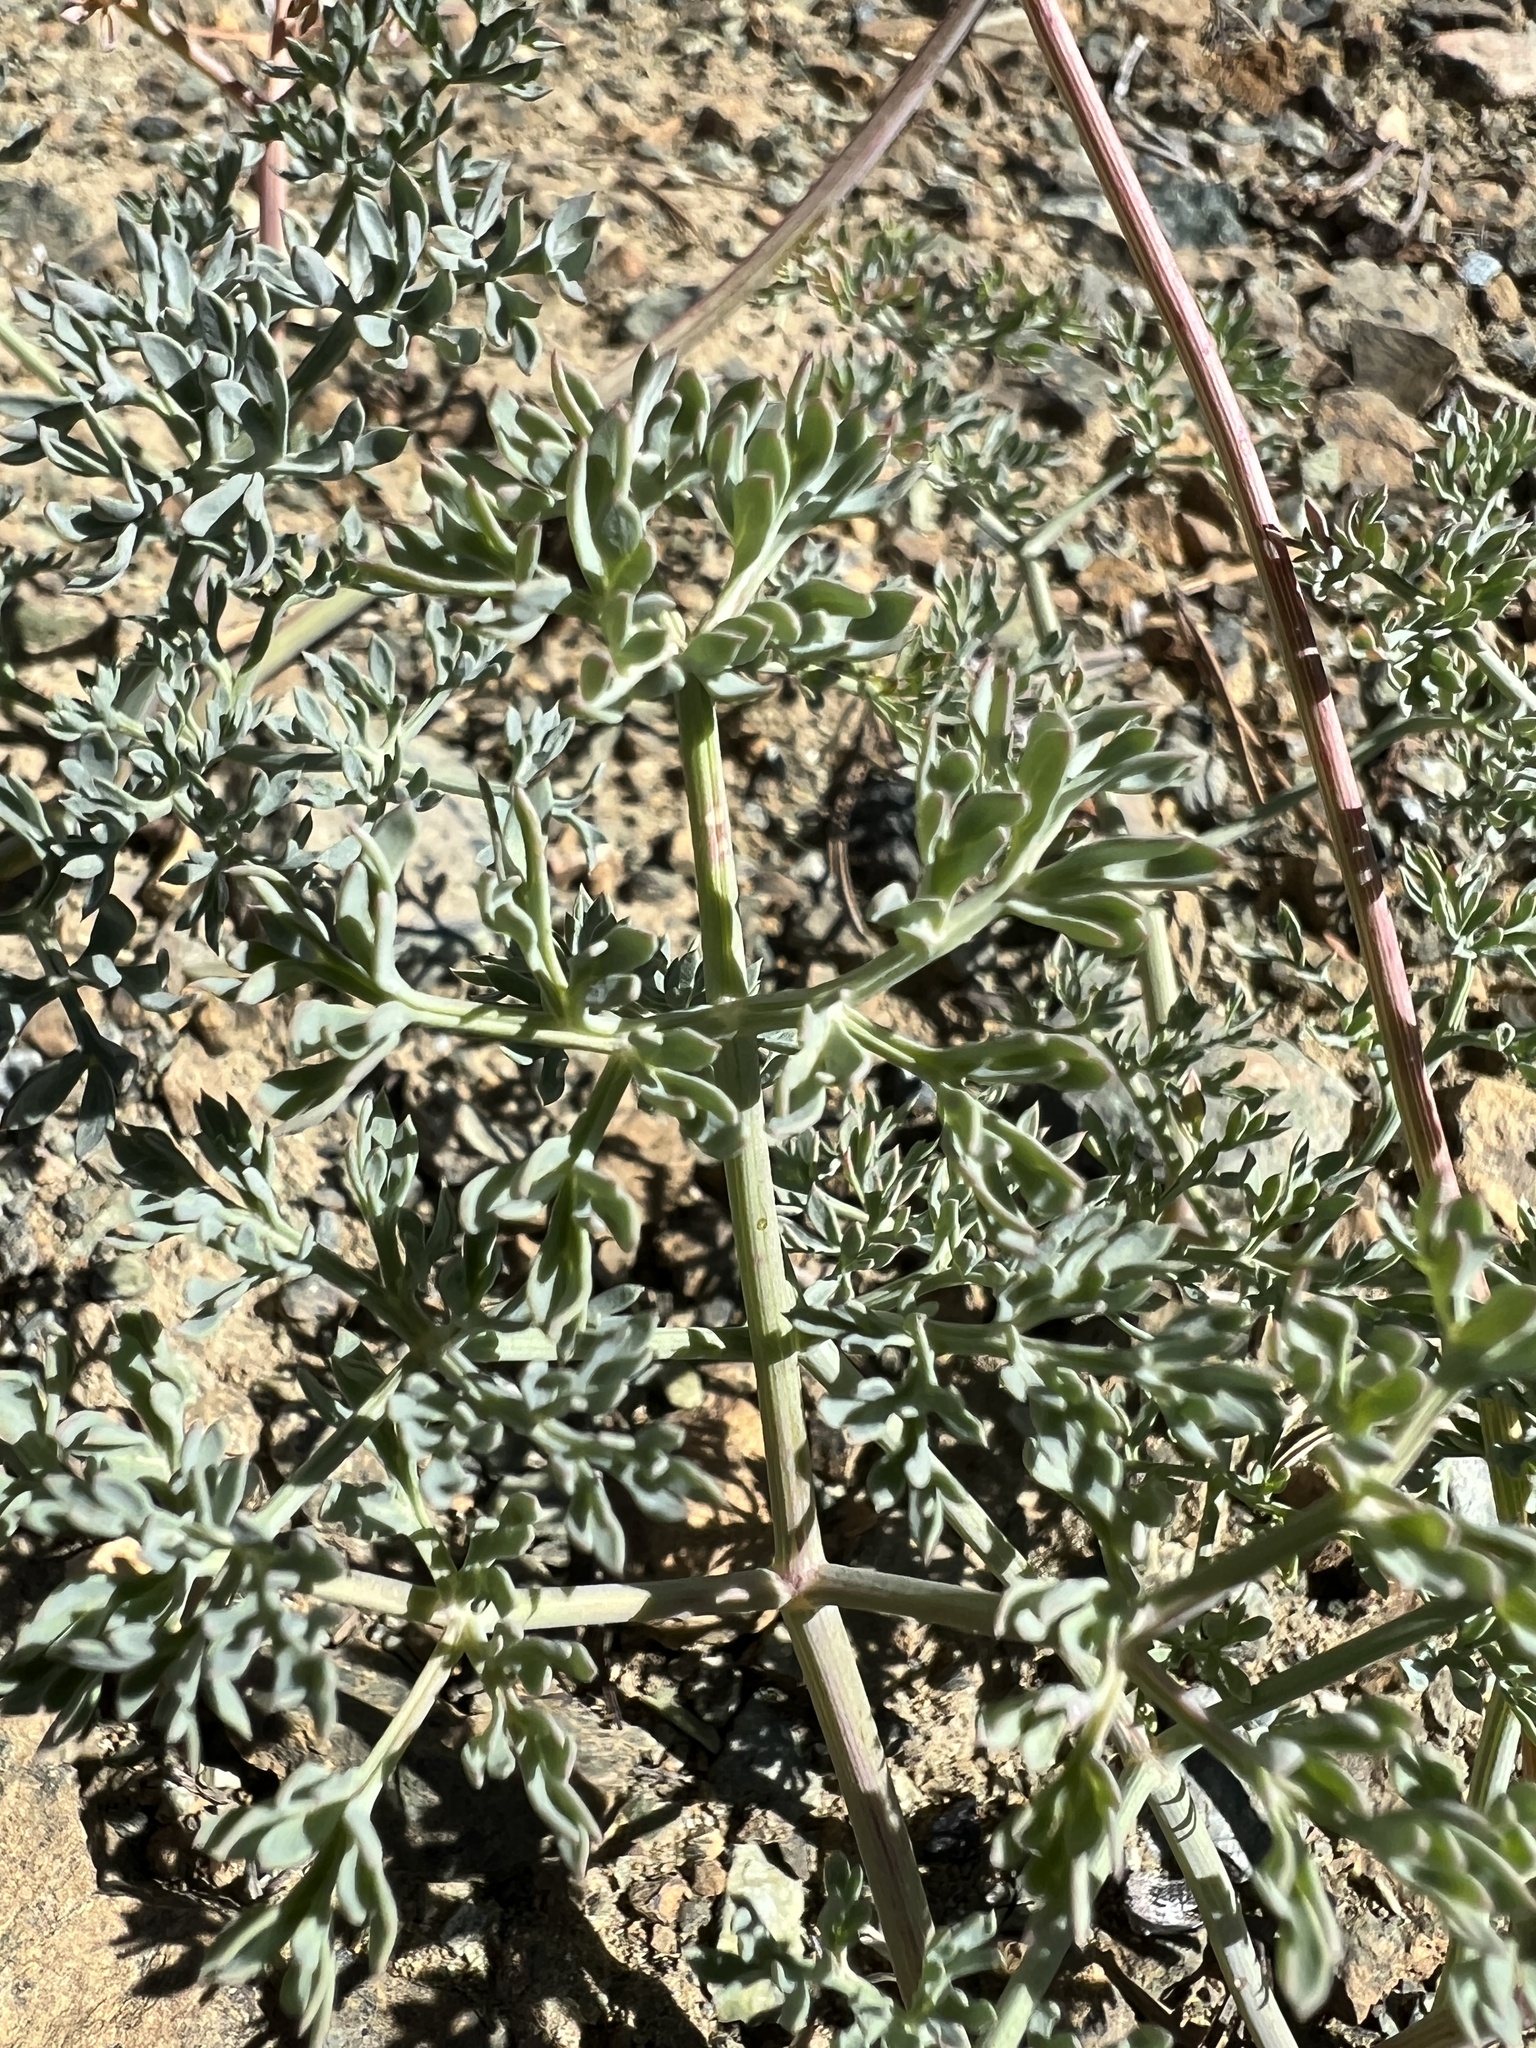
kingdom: Plantae
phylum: Tracheophyta
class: Magnoliopsida
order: Apiales
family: Apiaceae
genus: Lomatium
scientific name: Lomatium cuspidatum
